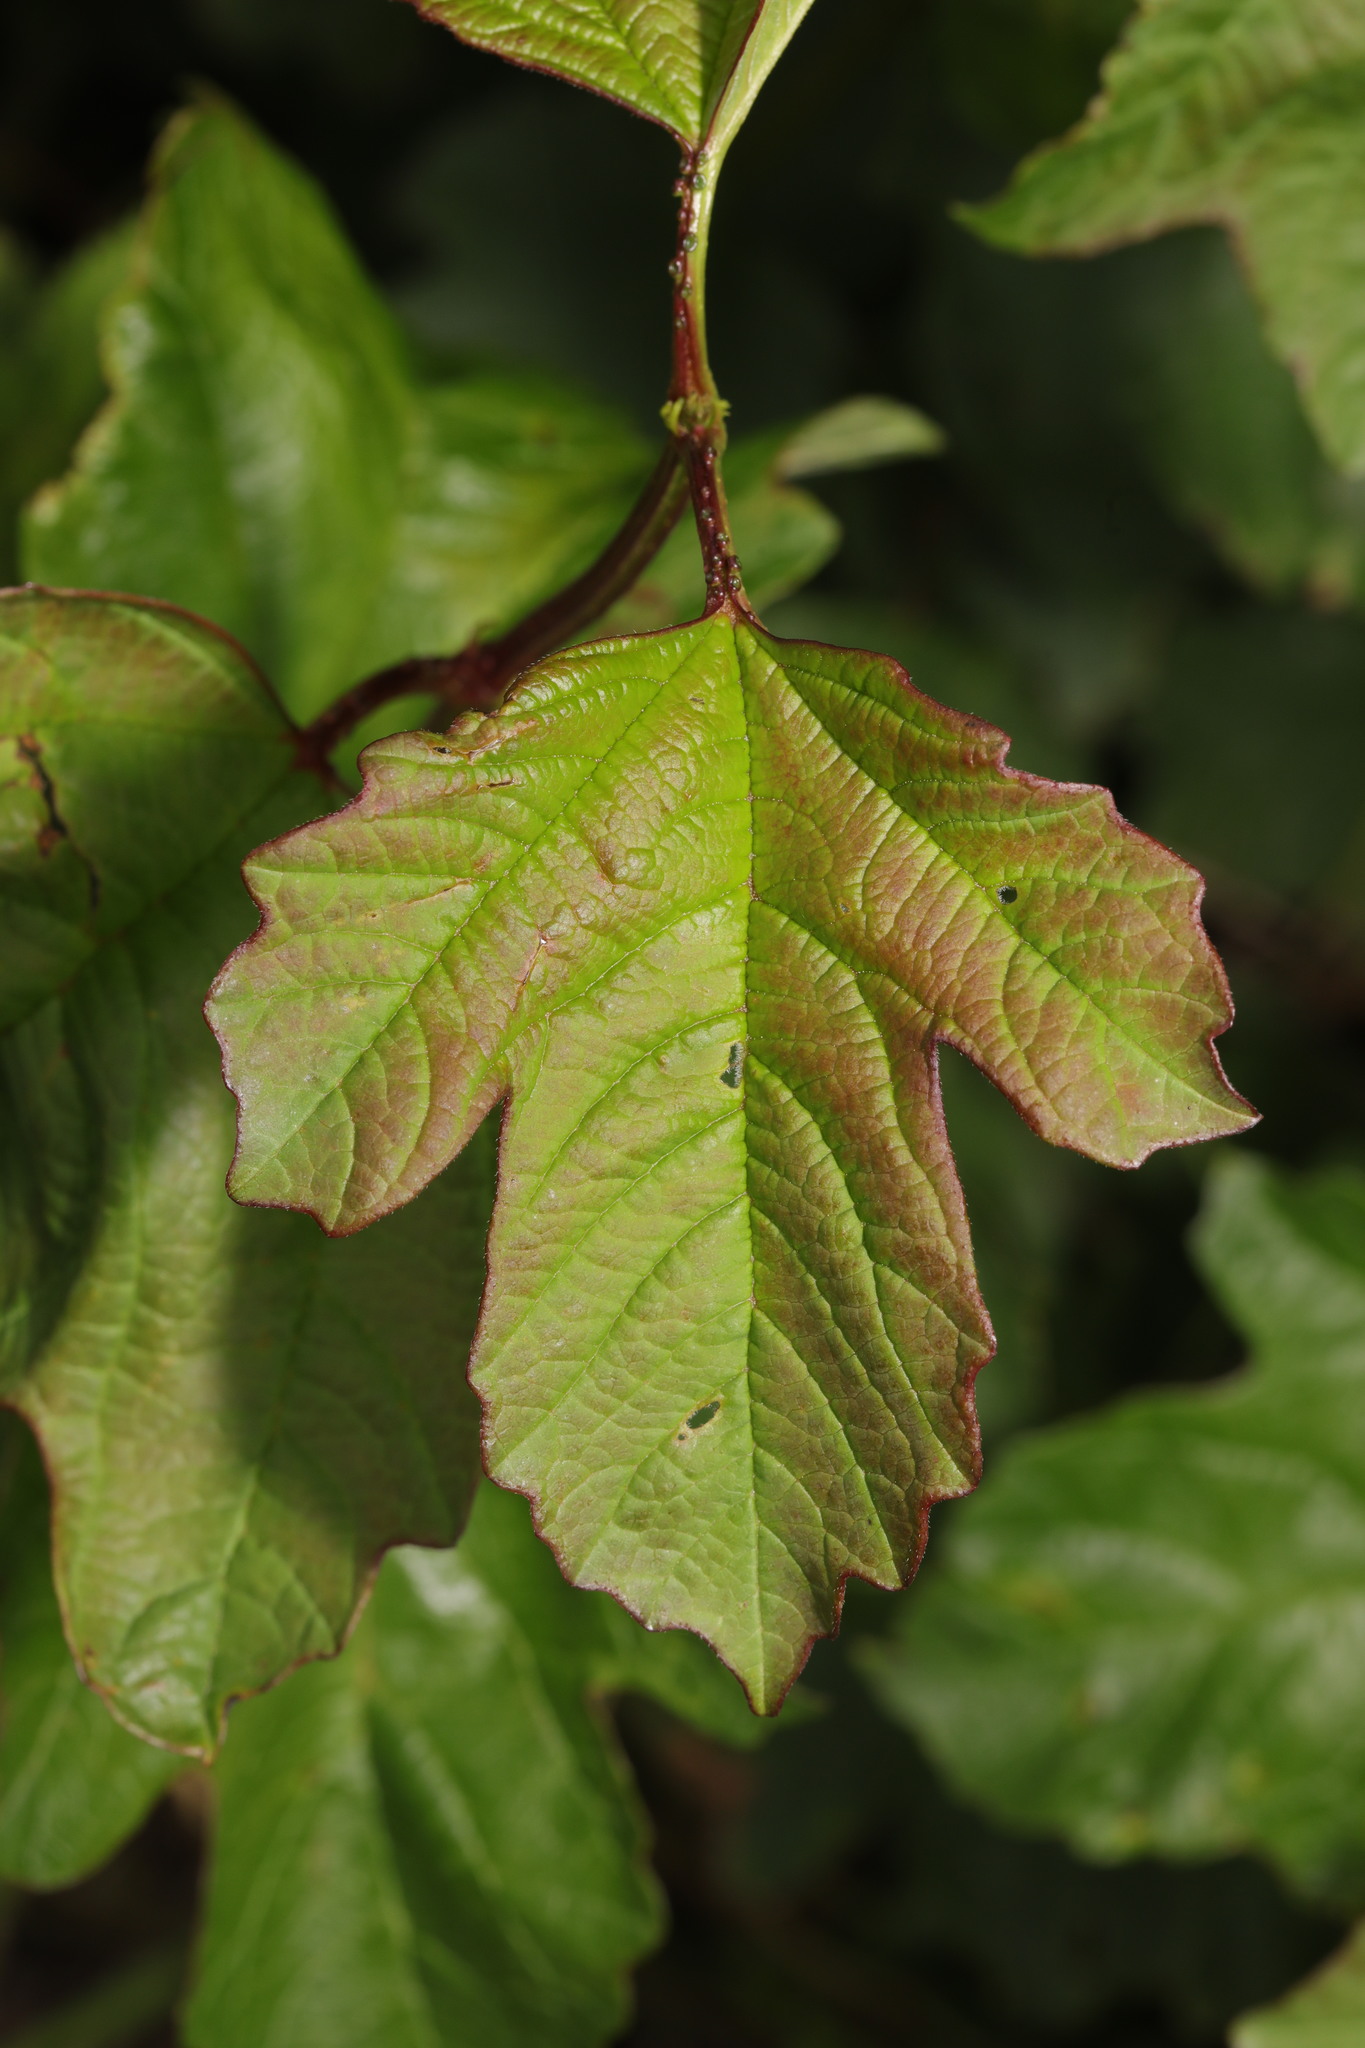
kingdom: Plantae
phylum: Tracheophyta
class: Magnoliopsida
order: Dipsacales
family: Viburnaceae
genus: Viburnum
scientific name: Viburnum opulus
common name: Guelder-rose
